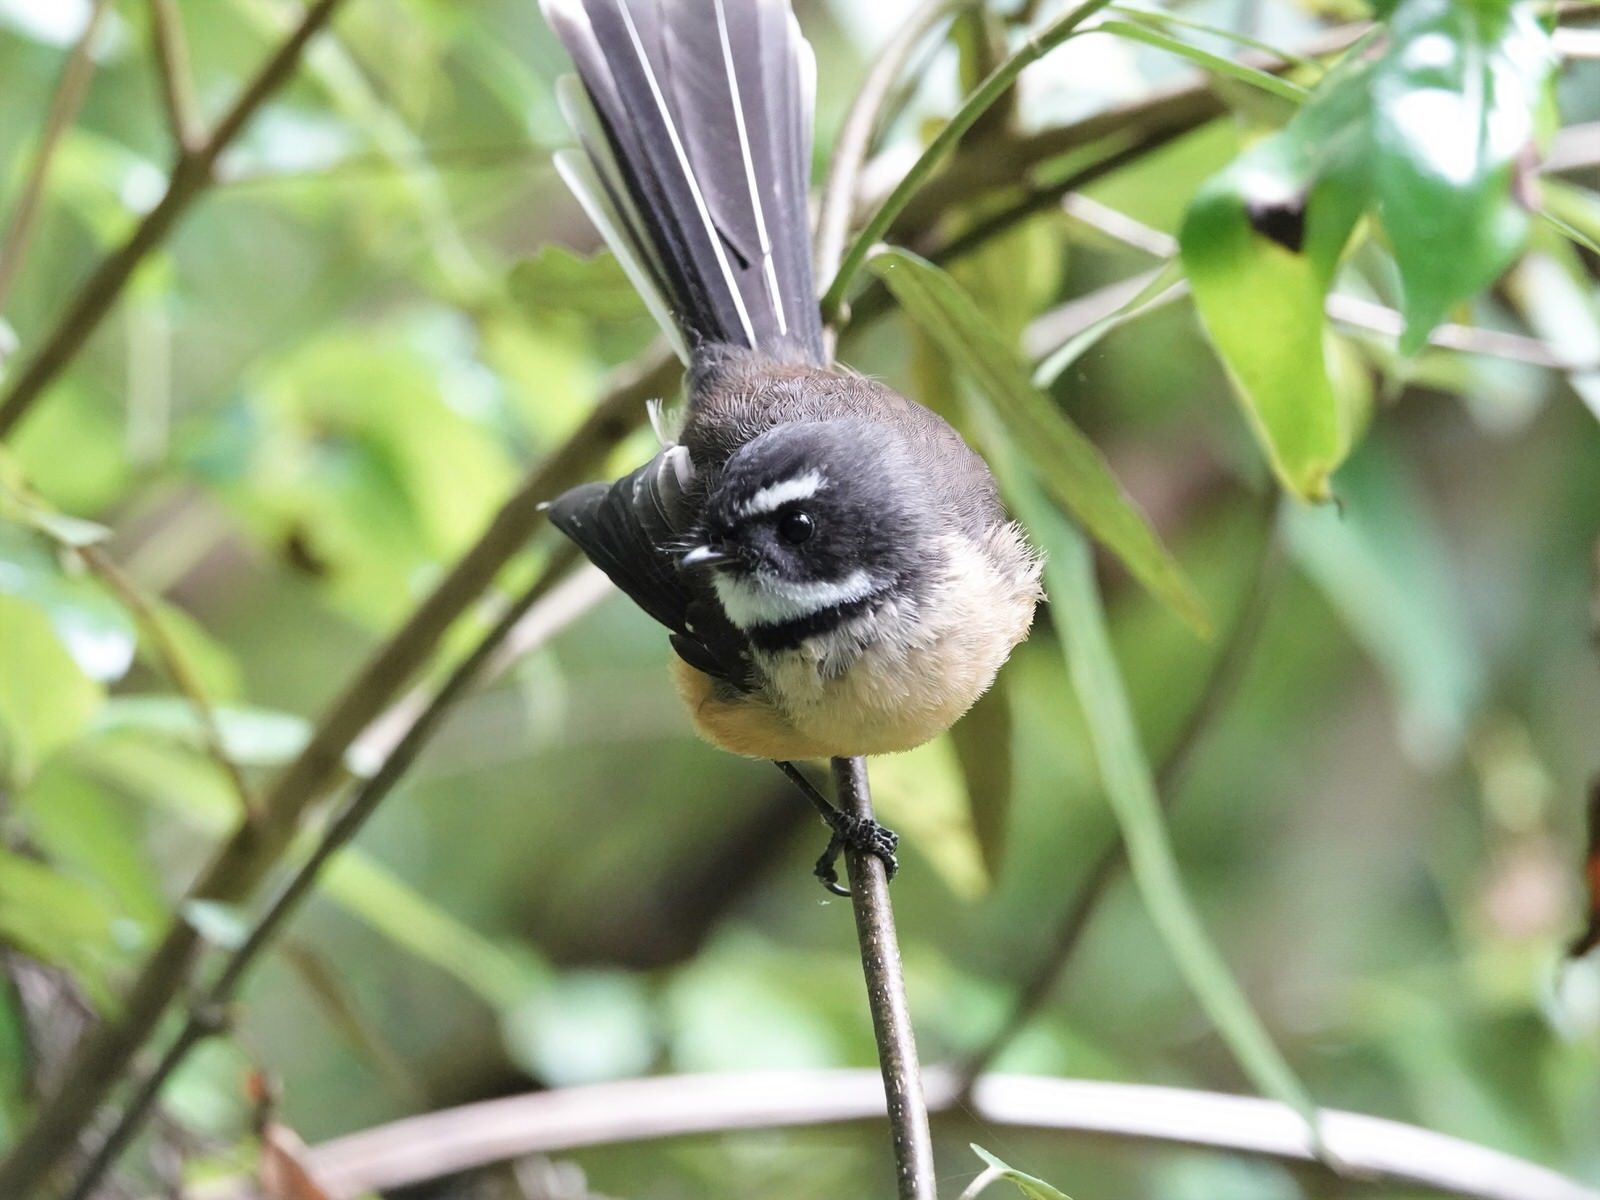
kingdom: Animalia
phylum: Chordata
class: Aves
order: Passeriformes
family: Rhipiduridae
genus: Rhipidura
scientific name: Rhipidura fuliginosa
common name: New zealand fantail
